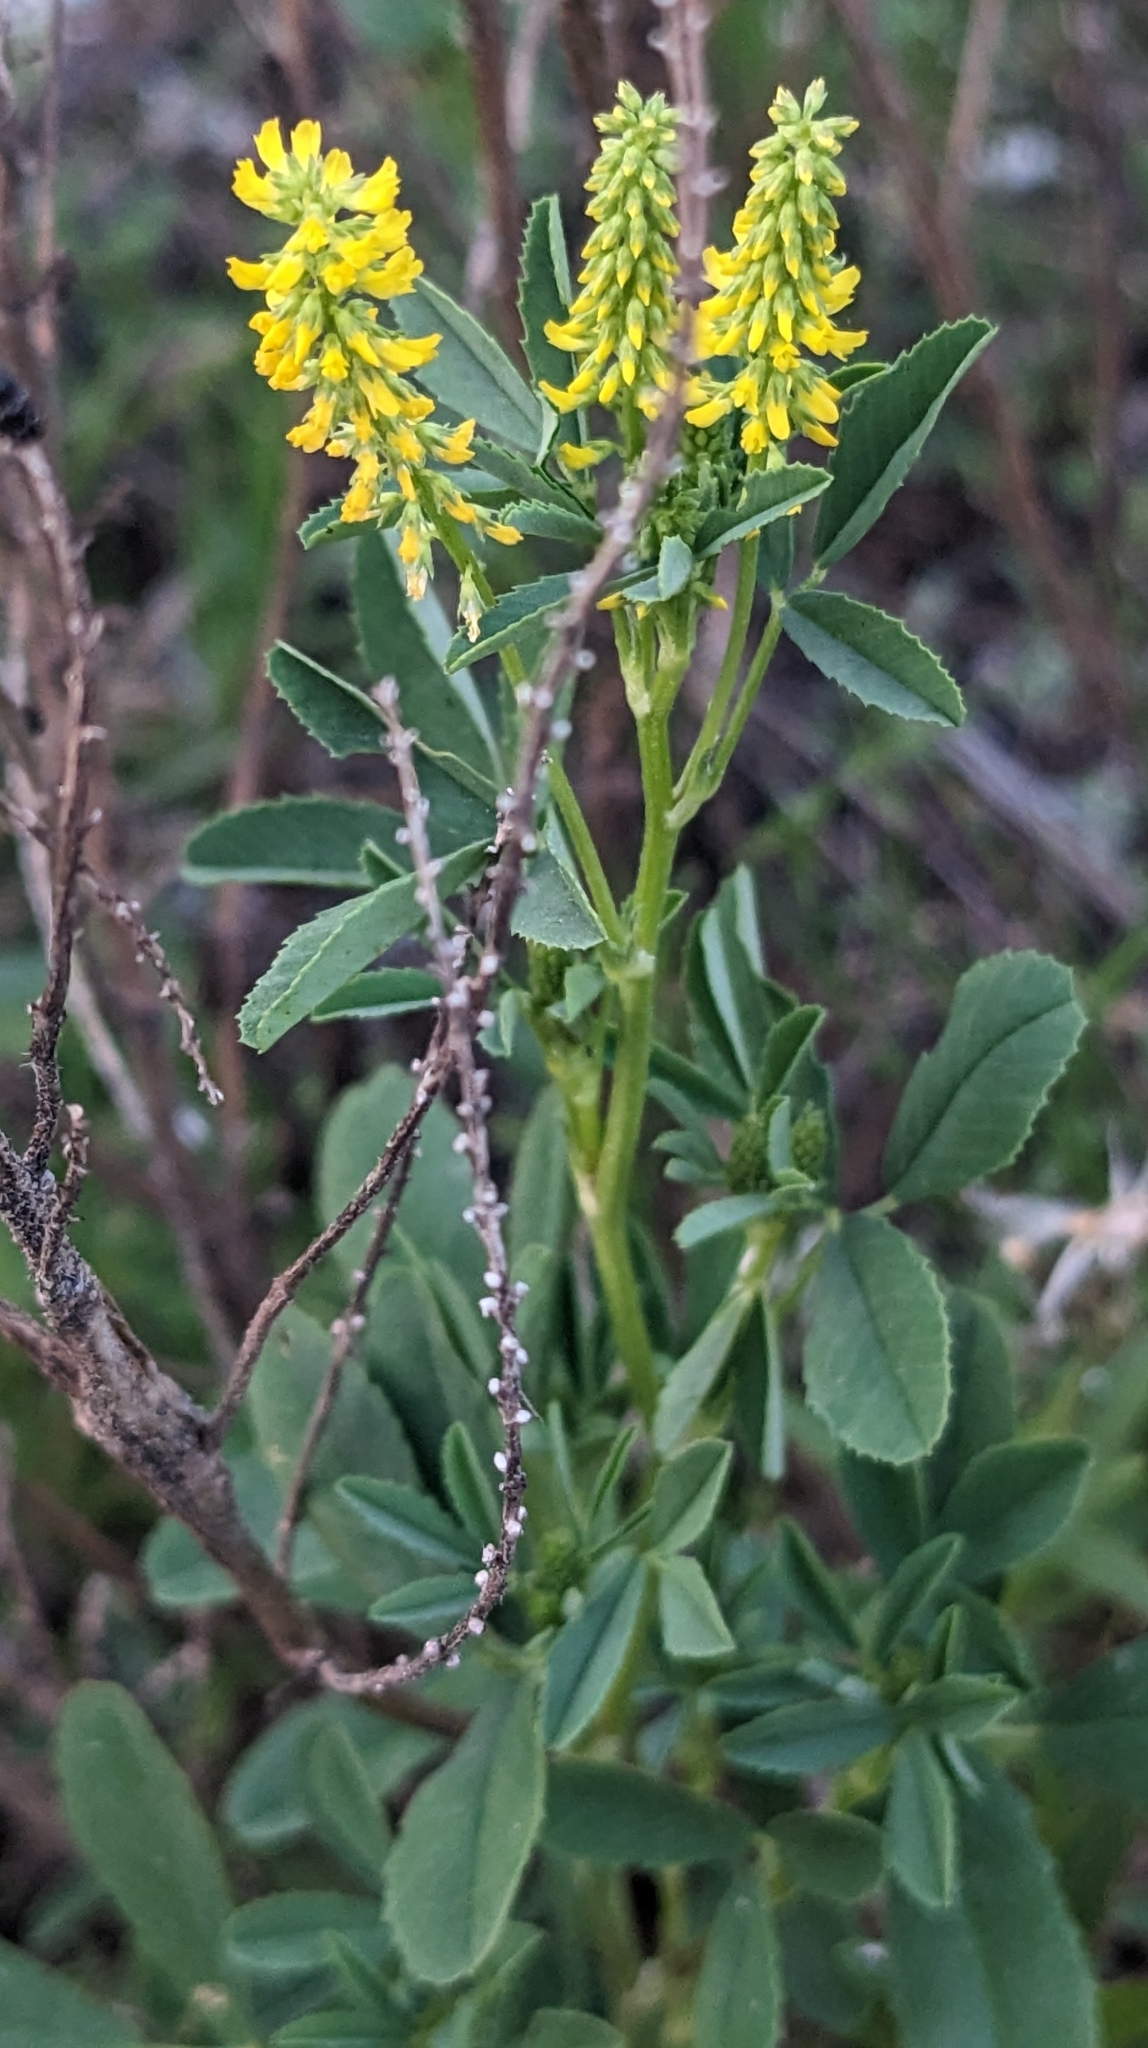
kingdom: Plantae
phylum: Tracheophyta
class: Magnoliopsida
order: Fabales
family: Fabaceae
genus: Melilotus
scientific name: Melilotus indicus
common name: Small melilot
